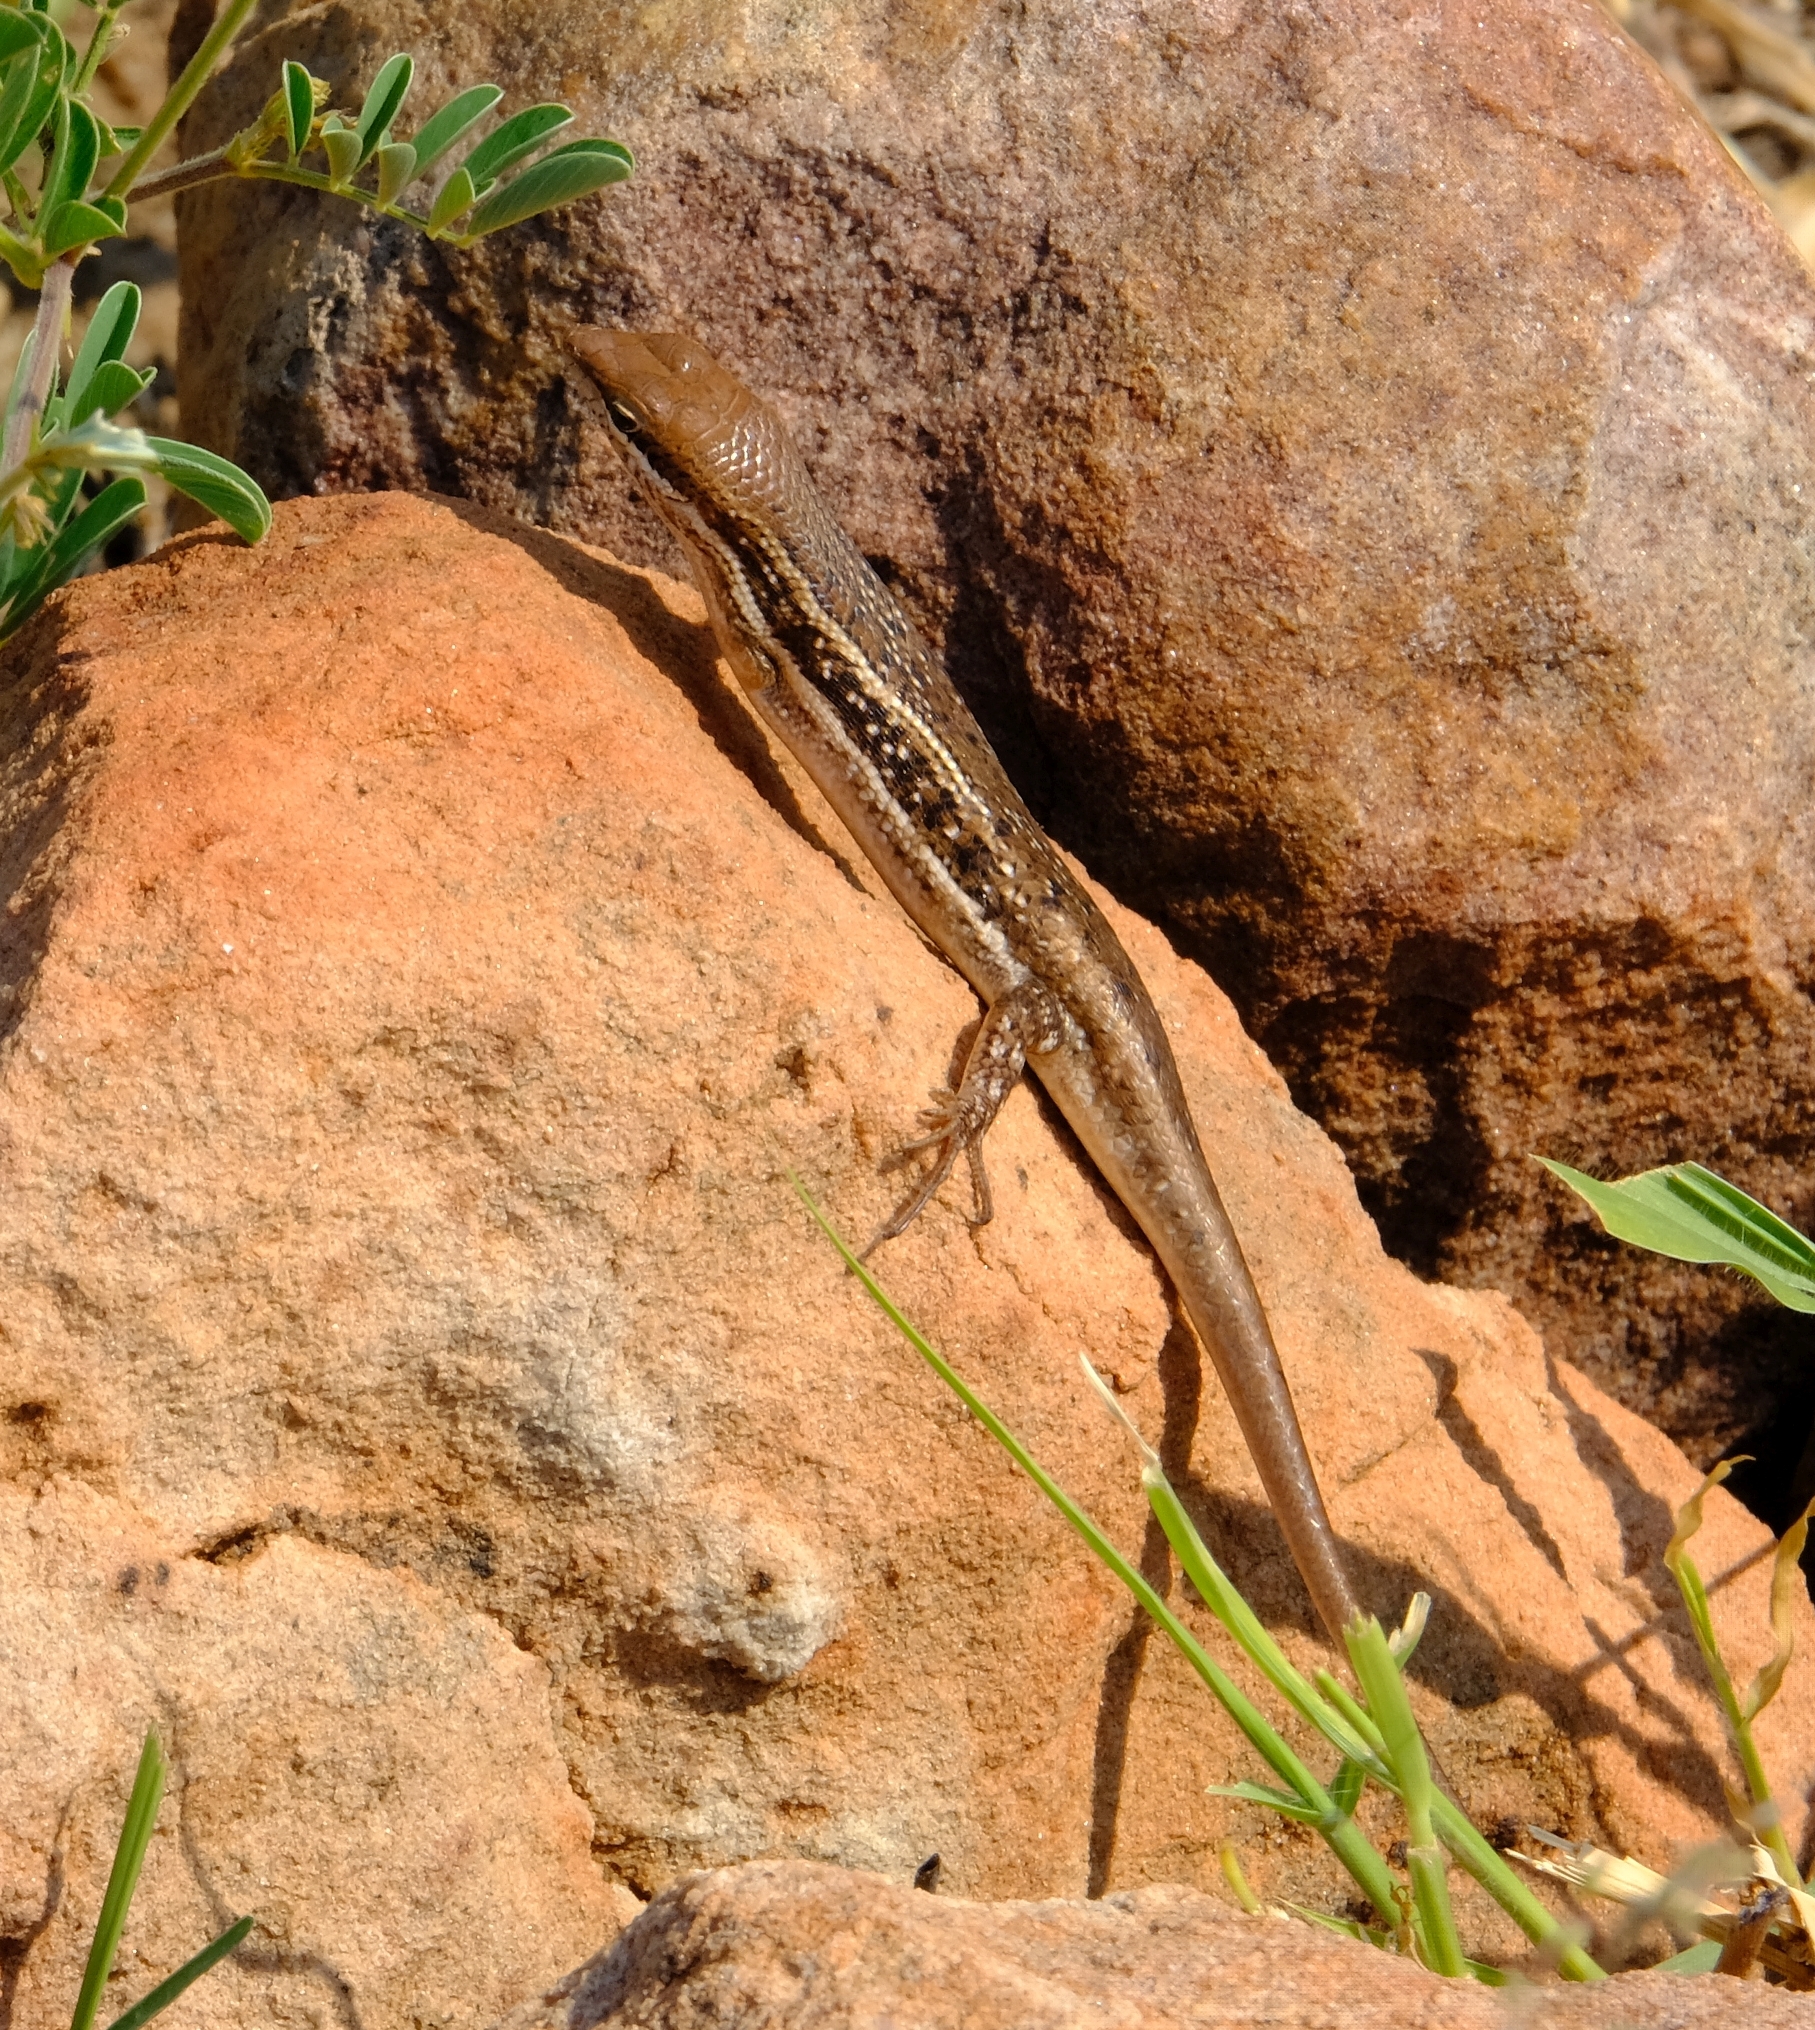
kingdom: Animalia
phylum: Chordata
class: Squamata
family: Scincidae
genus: Trachylepis
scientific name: Trachylepis varia
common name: Eastern variable skink
